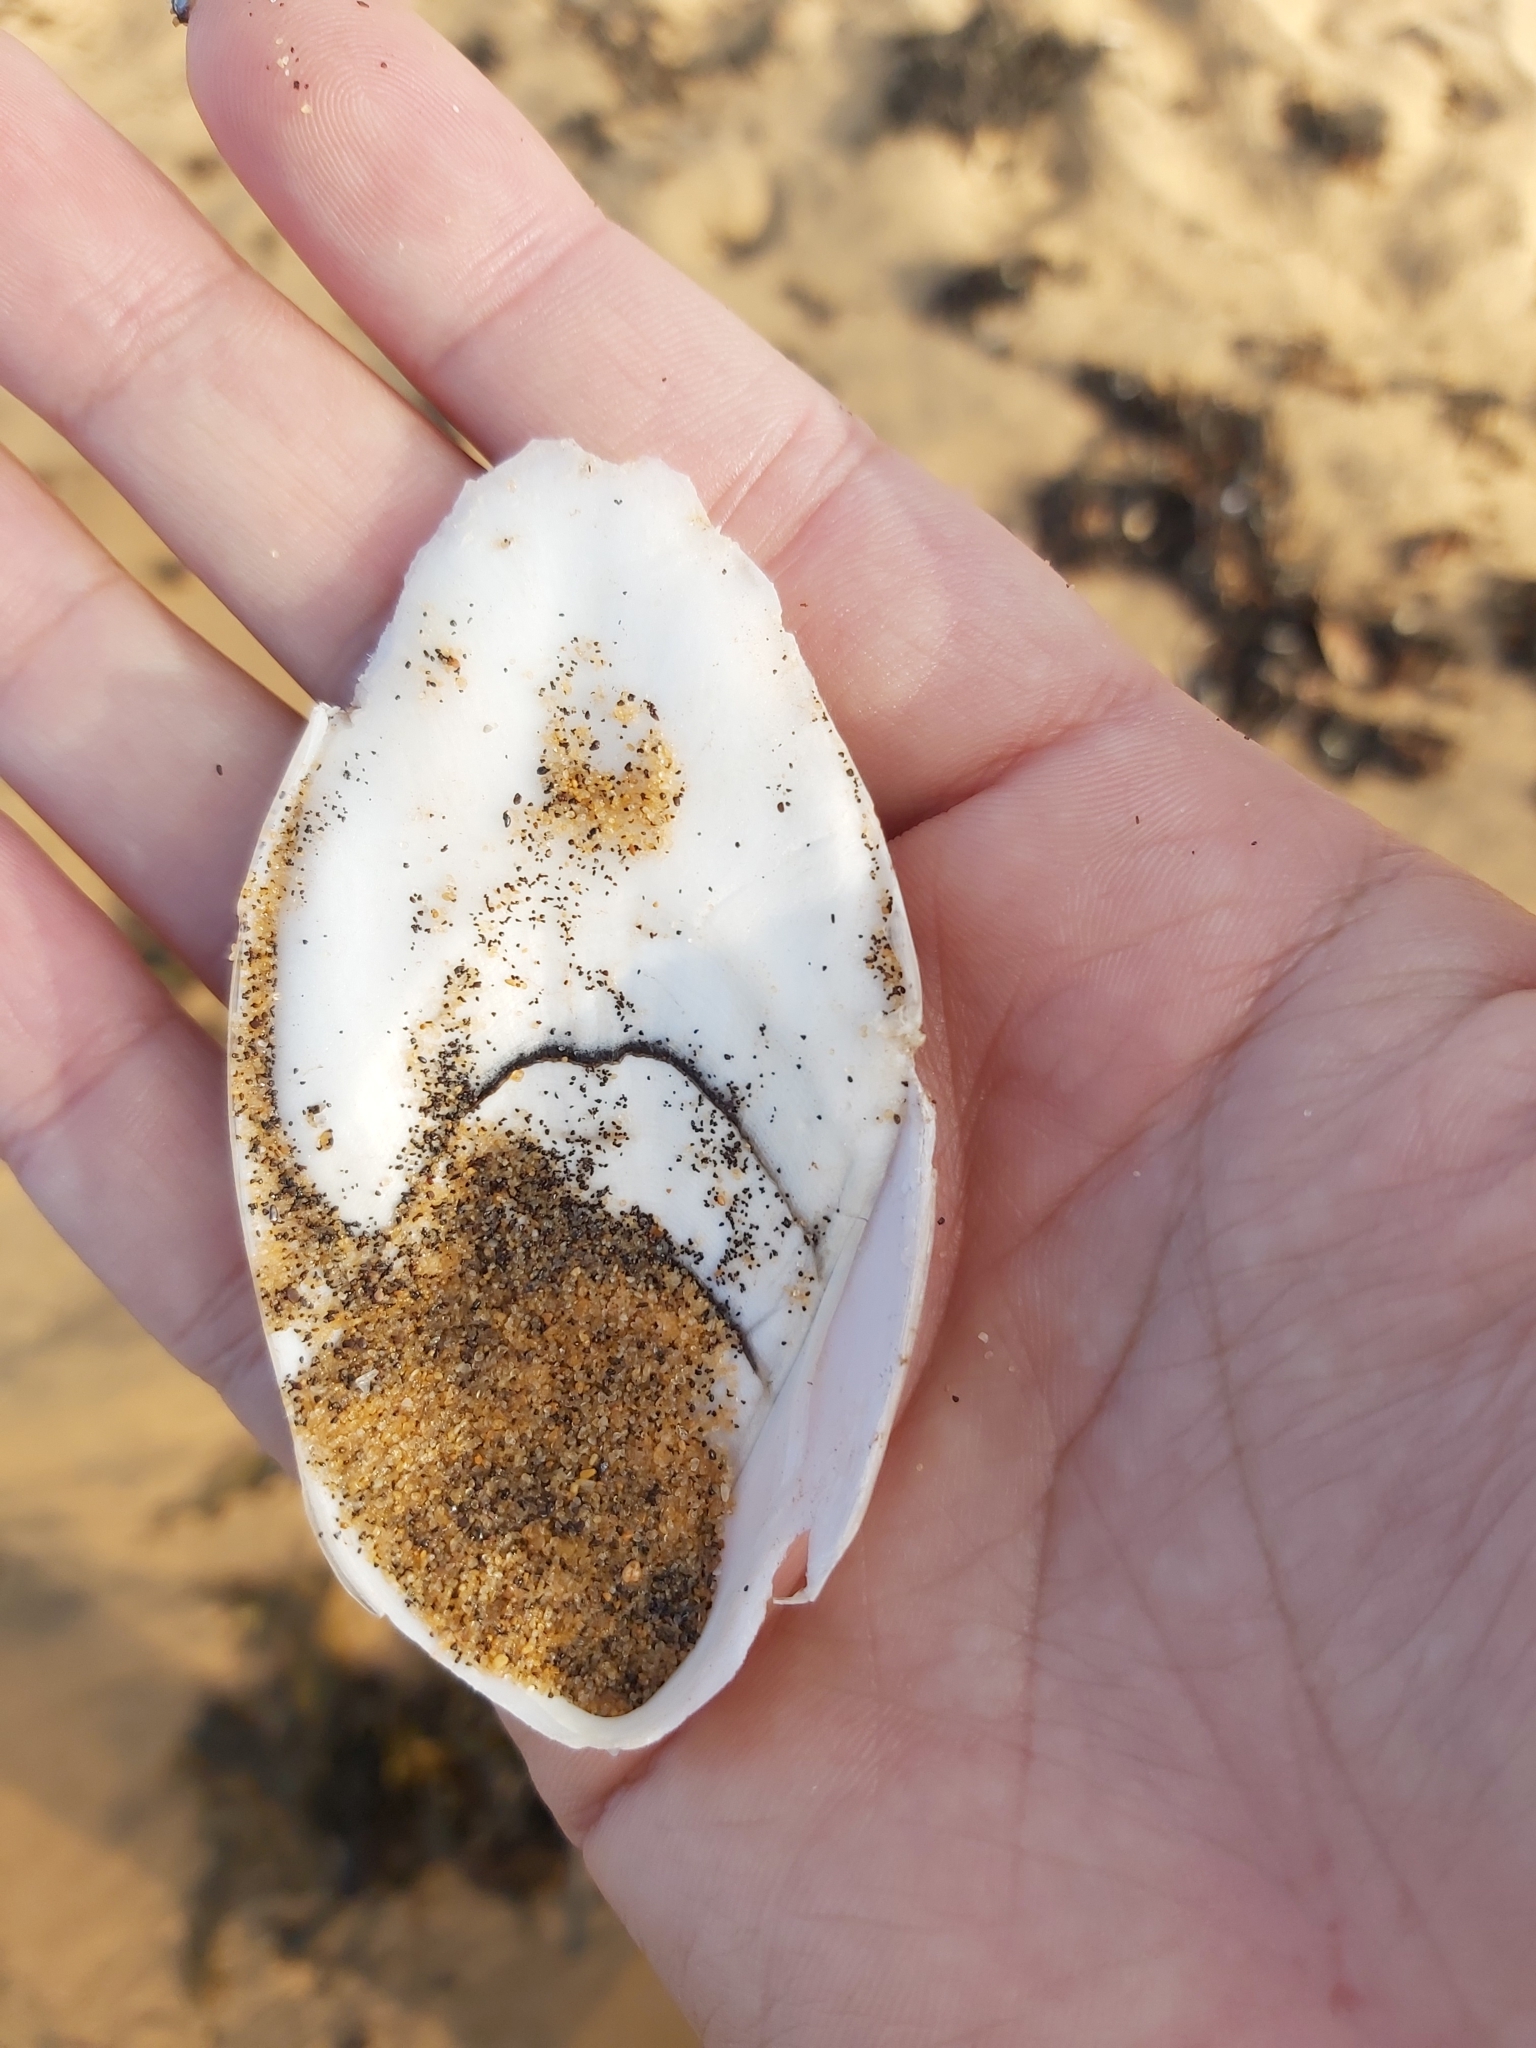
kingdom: Animalia
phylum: Mollusca
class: Cephalopoda
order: Sepiida
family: Sepiidae
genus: Ascarosepion
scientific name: Ascarosepion mestus
